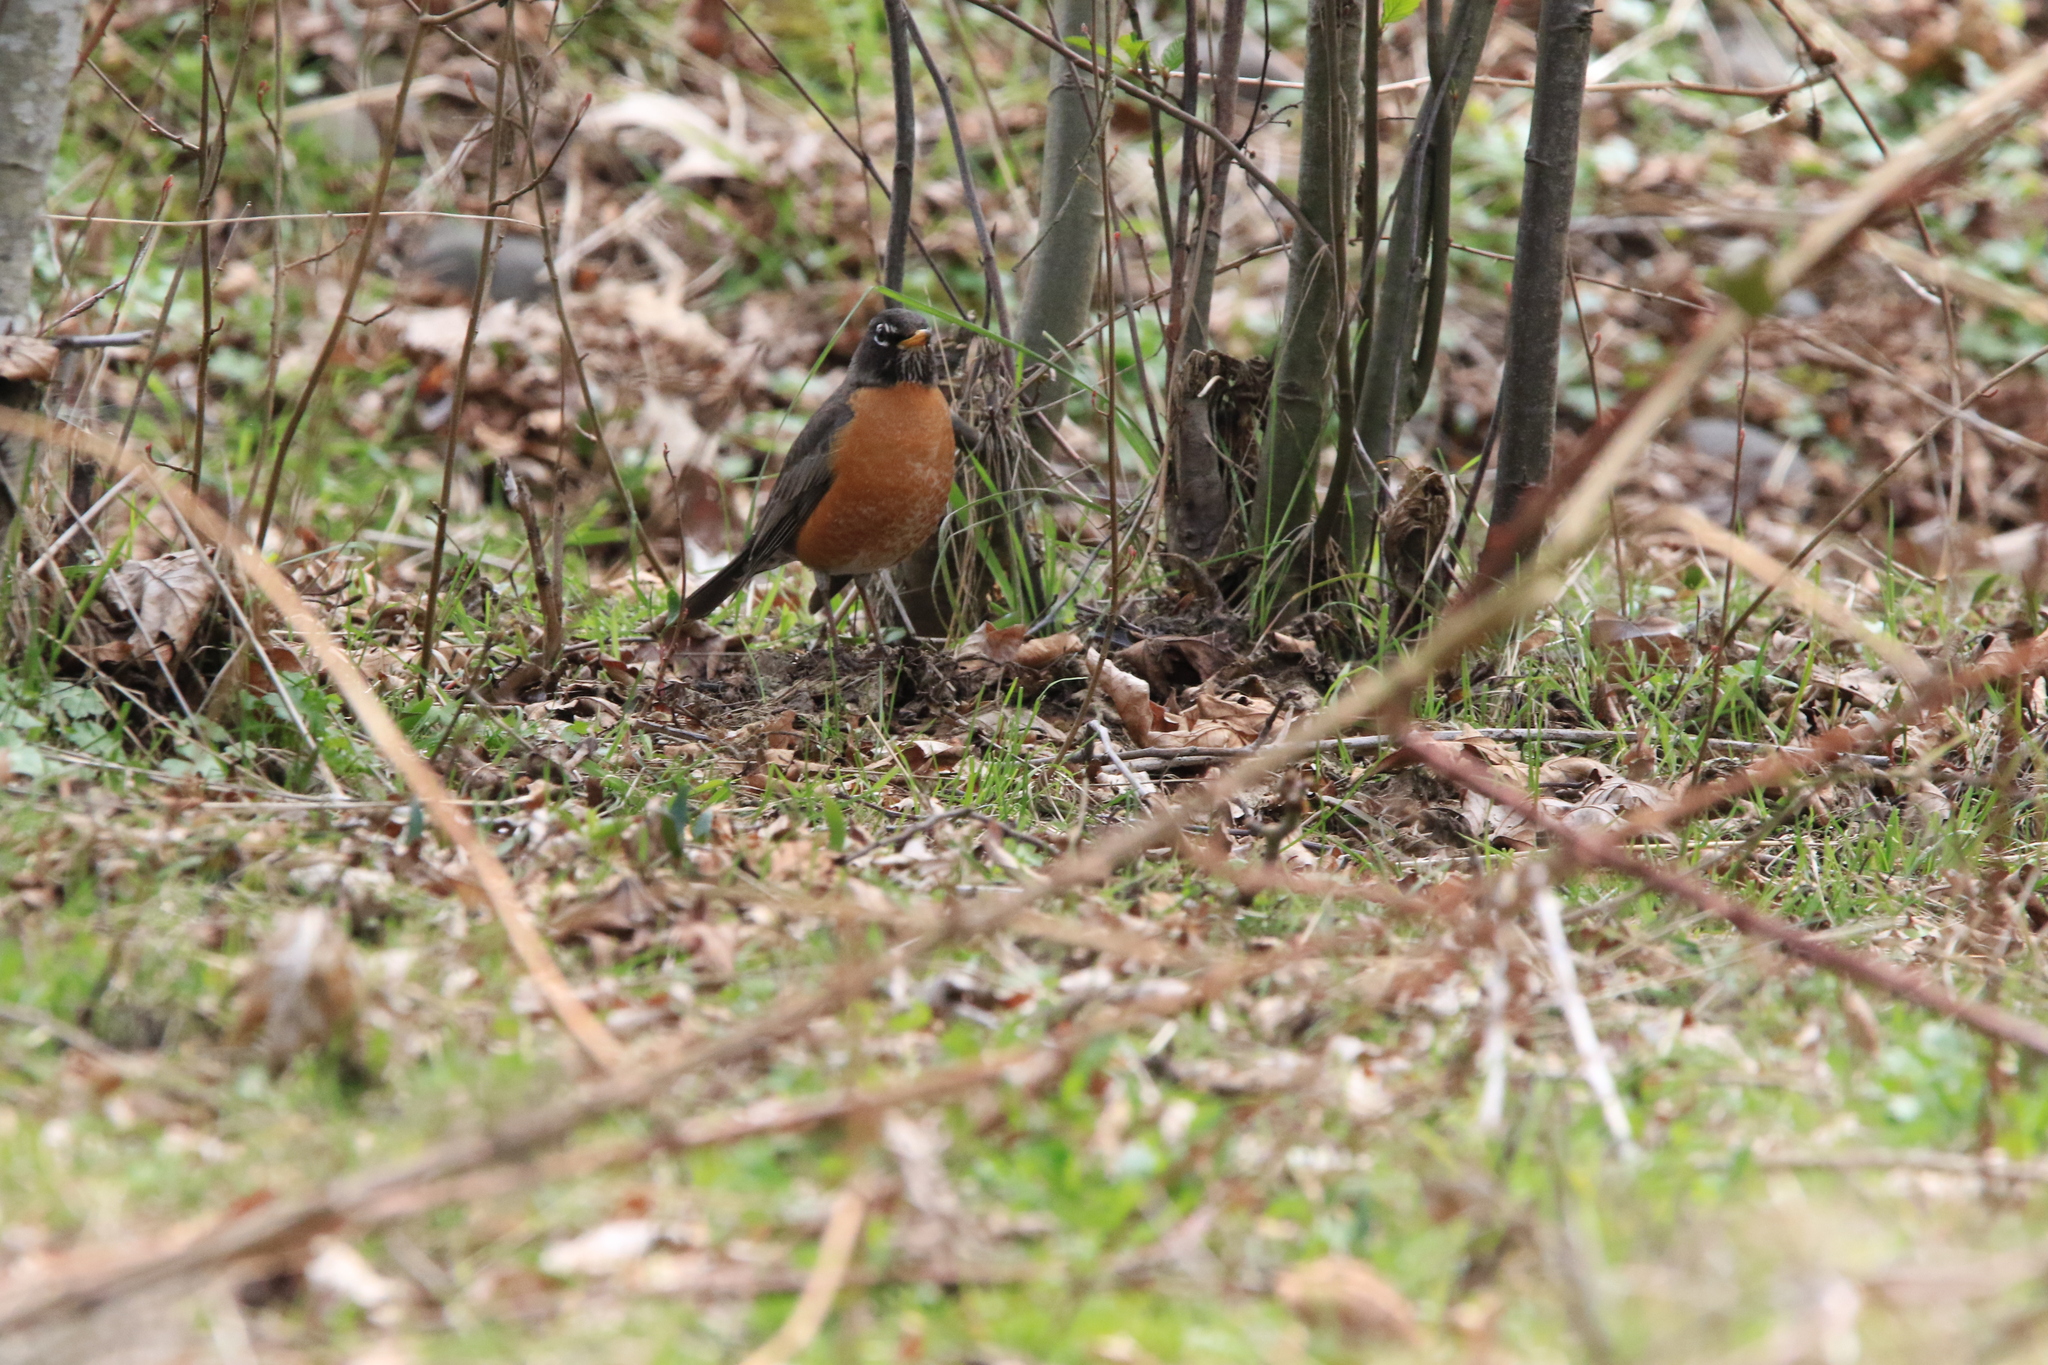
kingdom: Animalia
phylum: Chordata
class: Aves
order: Passeriformes
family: Turdidae
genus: Turdus
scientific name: Turdus migratorius
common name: American robin
